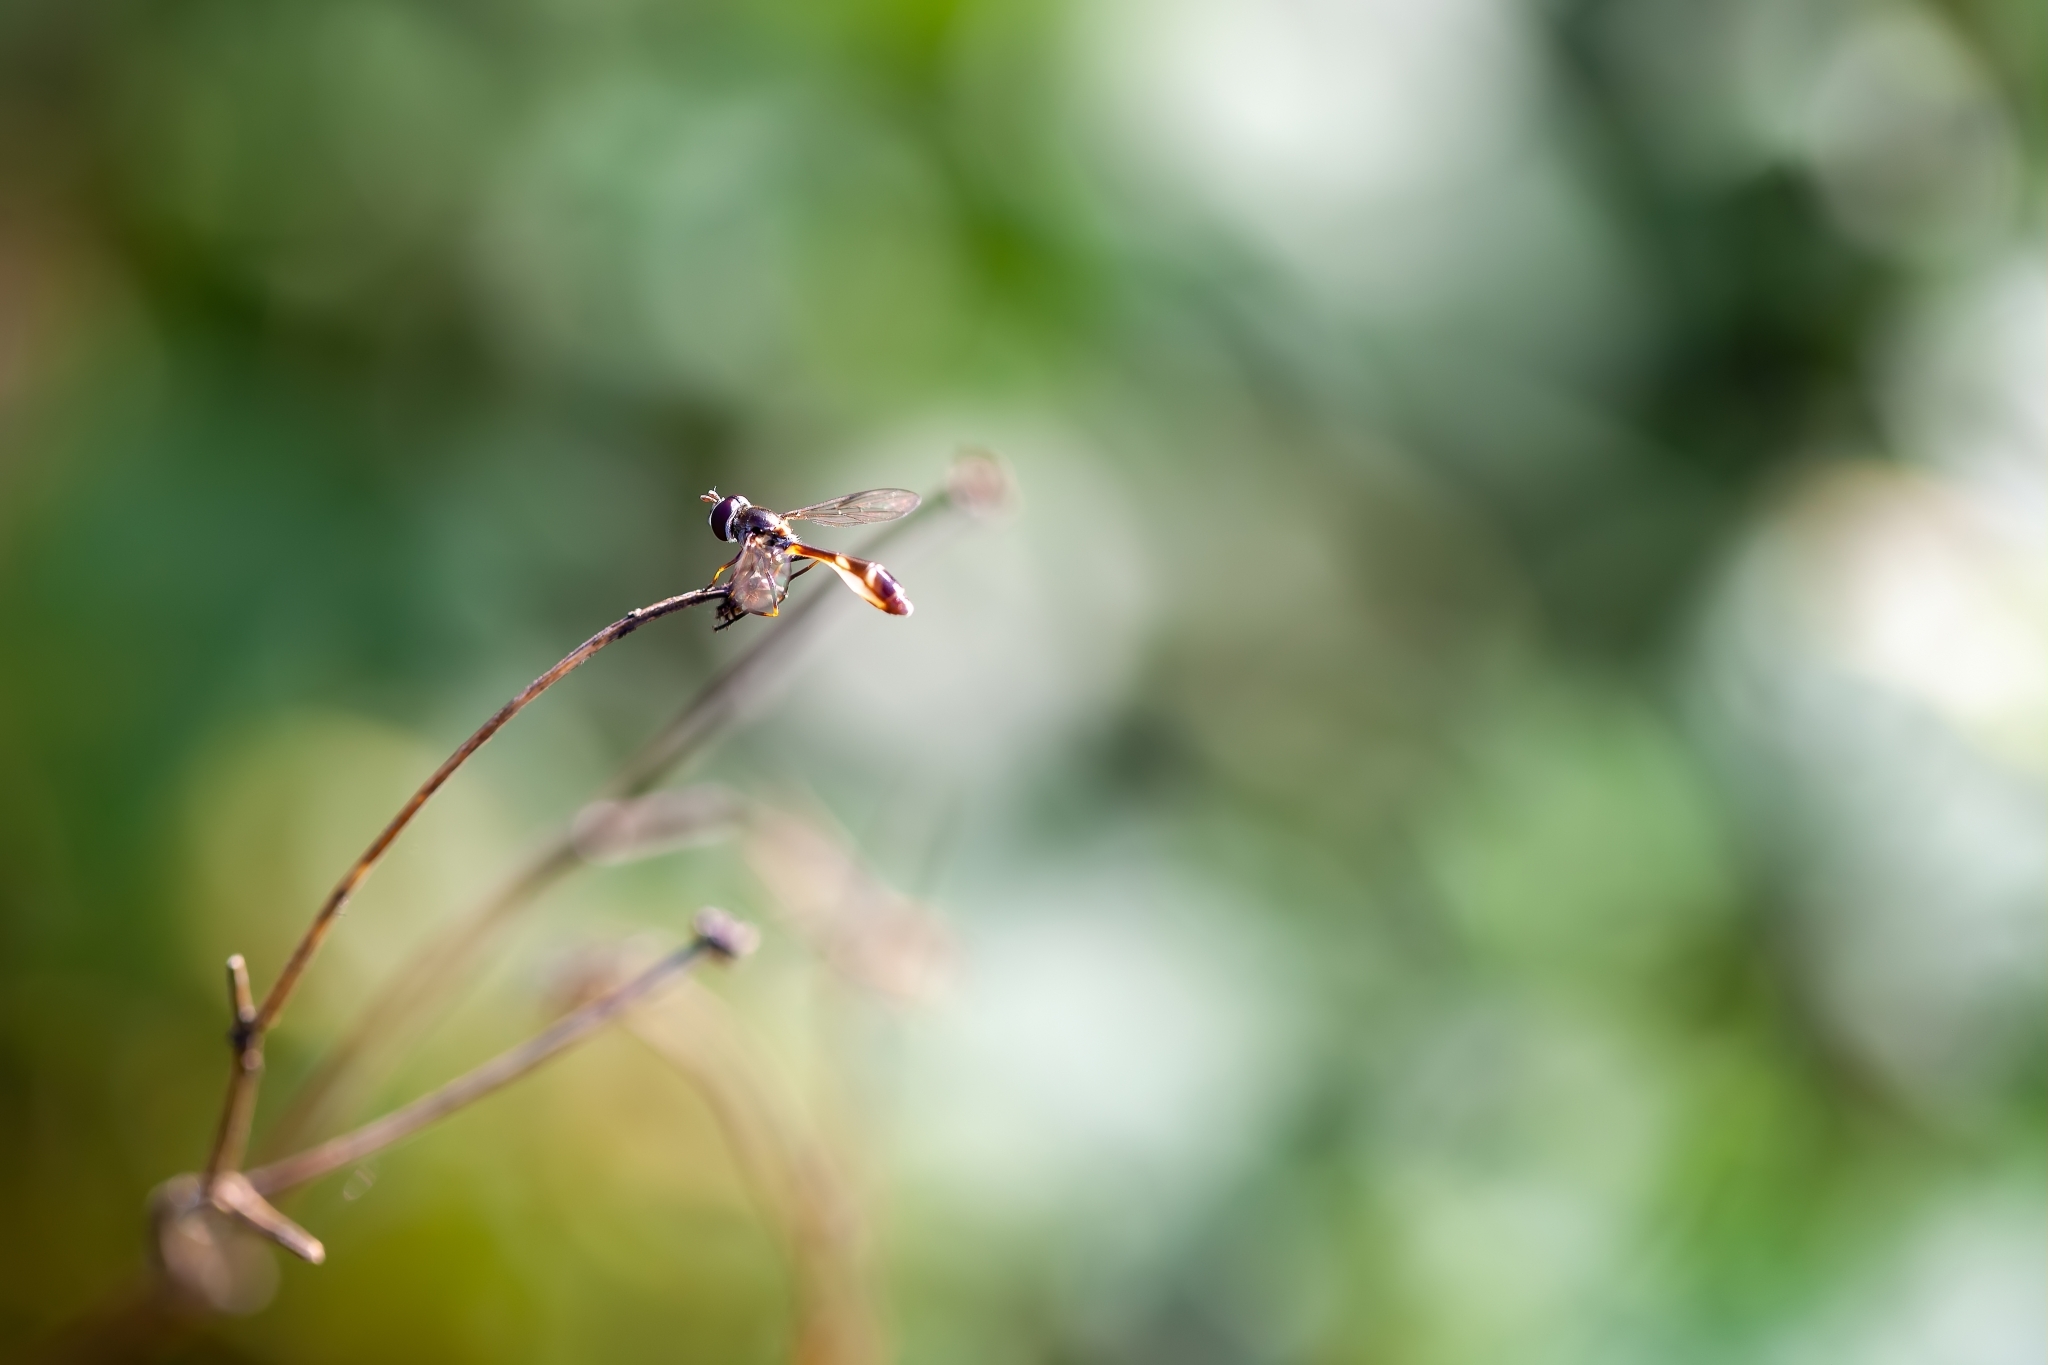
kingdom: Animalia
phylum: Arthropoda
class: Insecta
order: Diptera
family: Syrphidae
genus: Dioprosopa
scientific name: Dioprosopa clavatus
